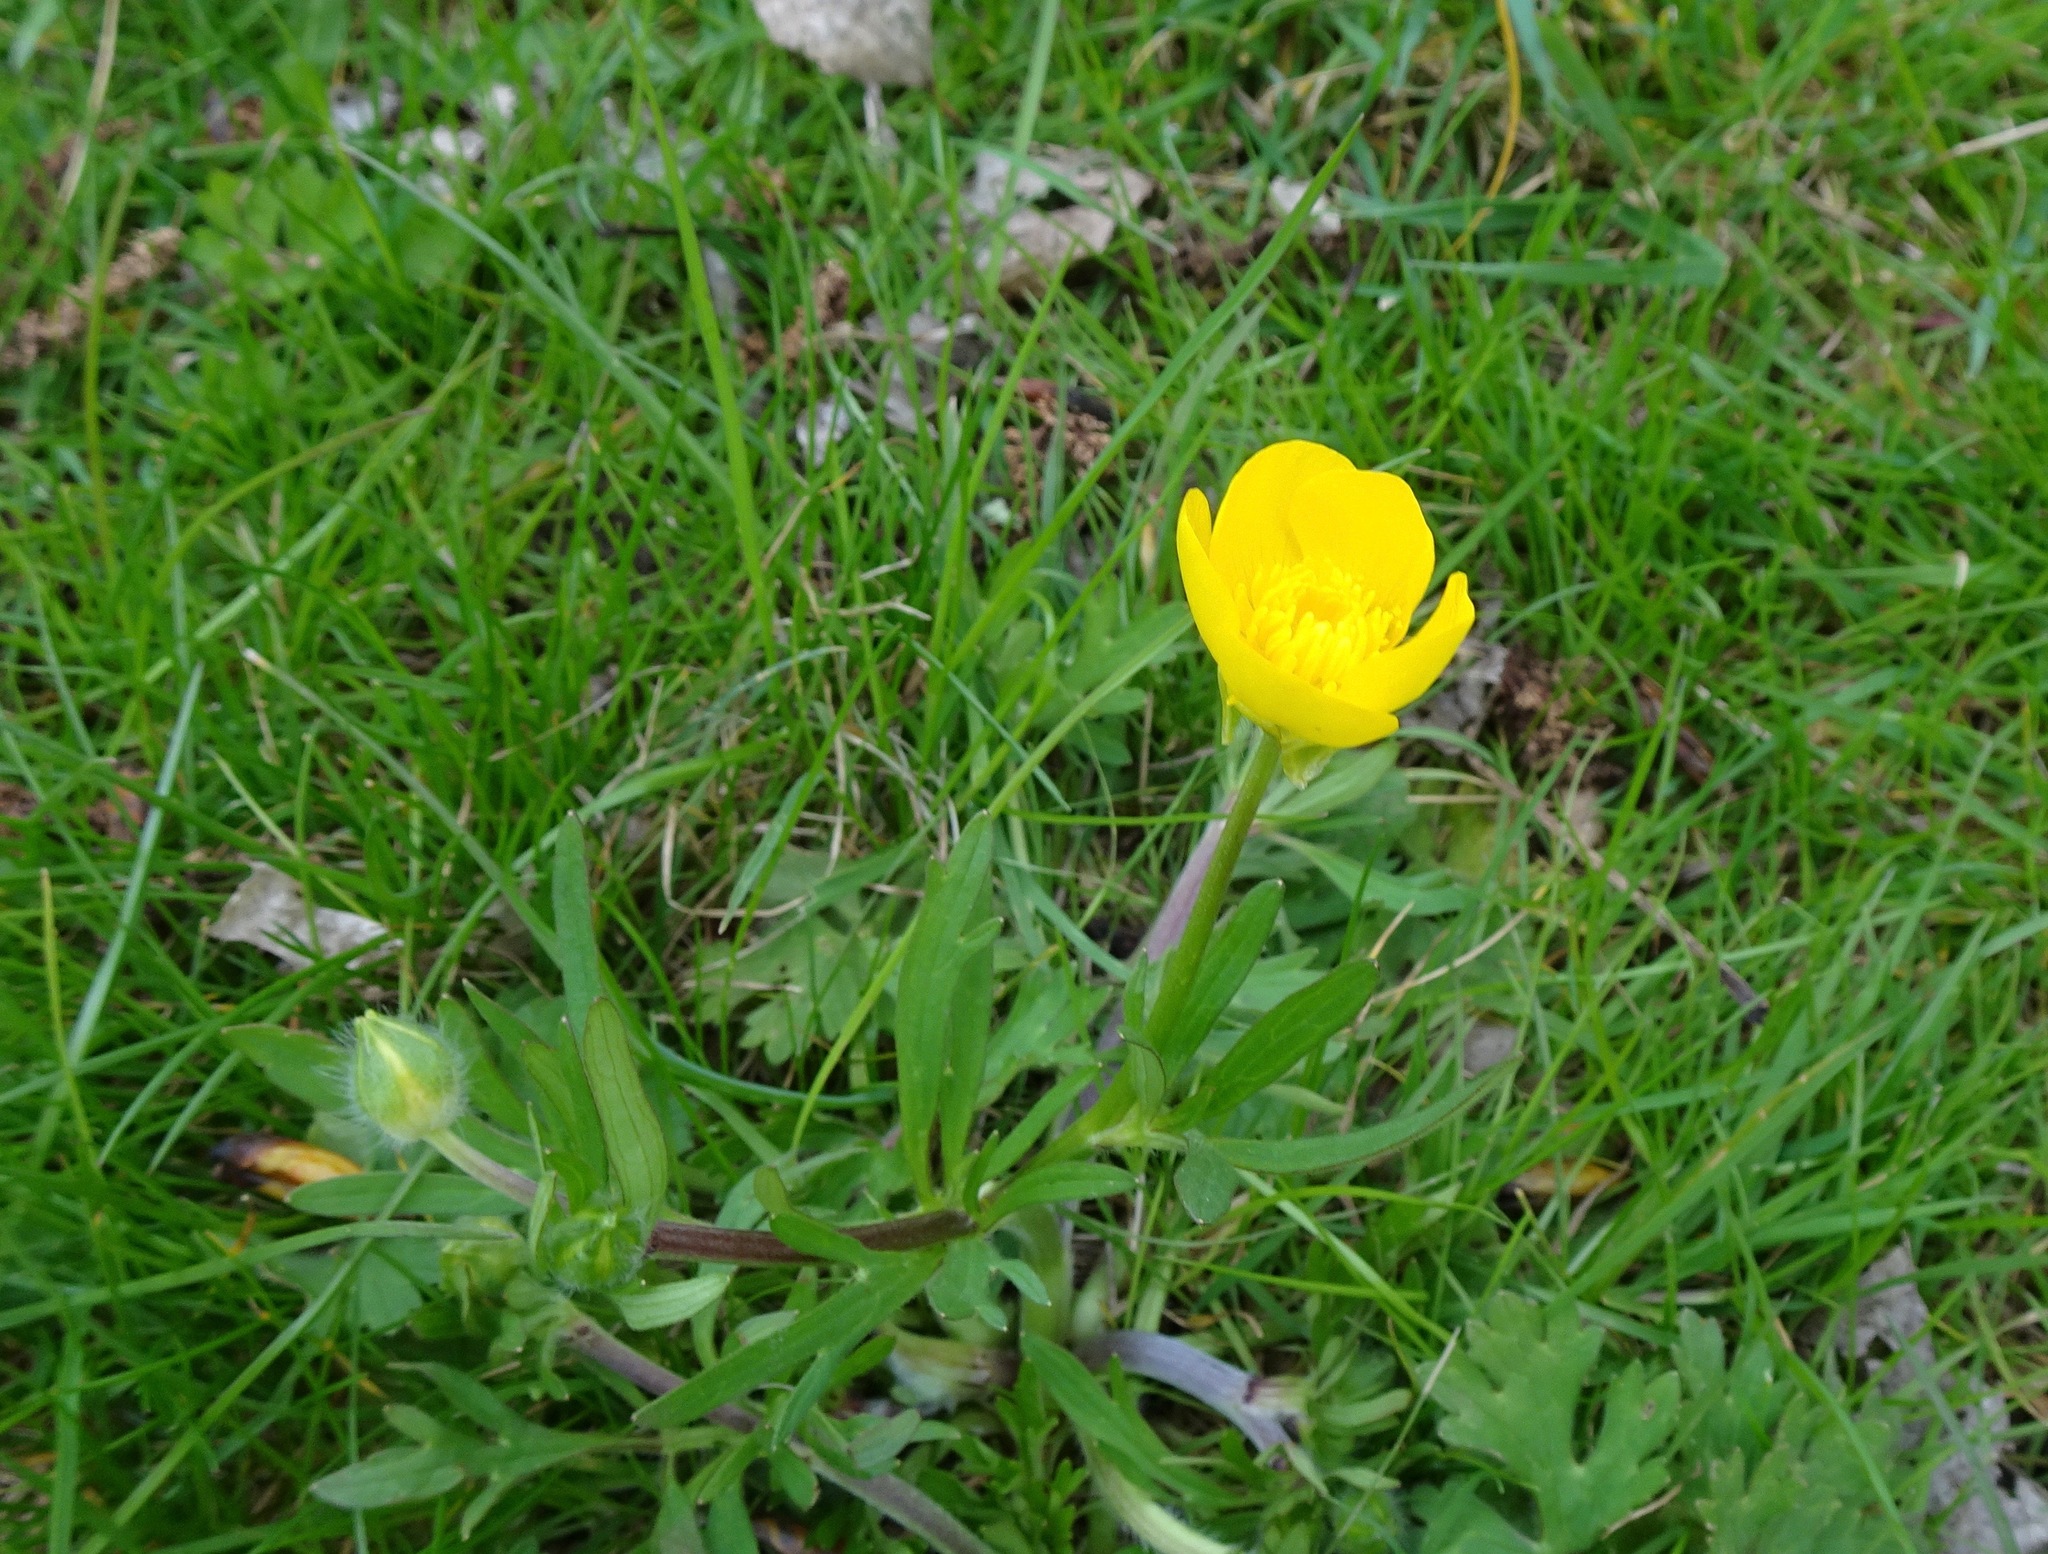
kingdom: Plantae
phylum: Tracheophyta
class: Magnoliopsida
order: Ranunculales
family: Ranunculaceae
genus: Ranunculus
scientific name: Ranunculus bulbosus
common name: Bulbous buttercup
